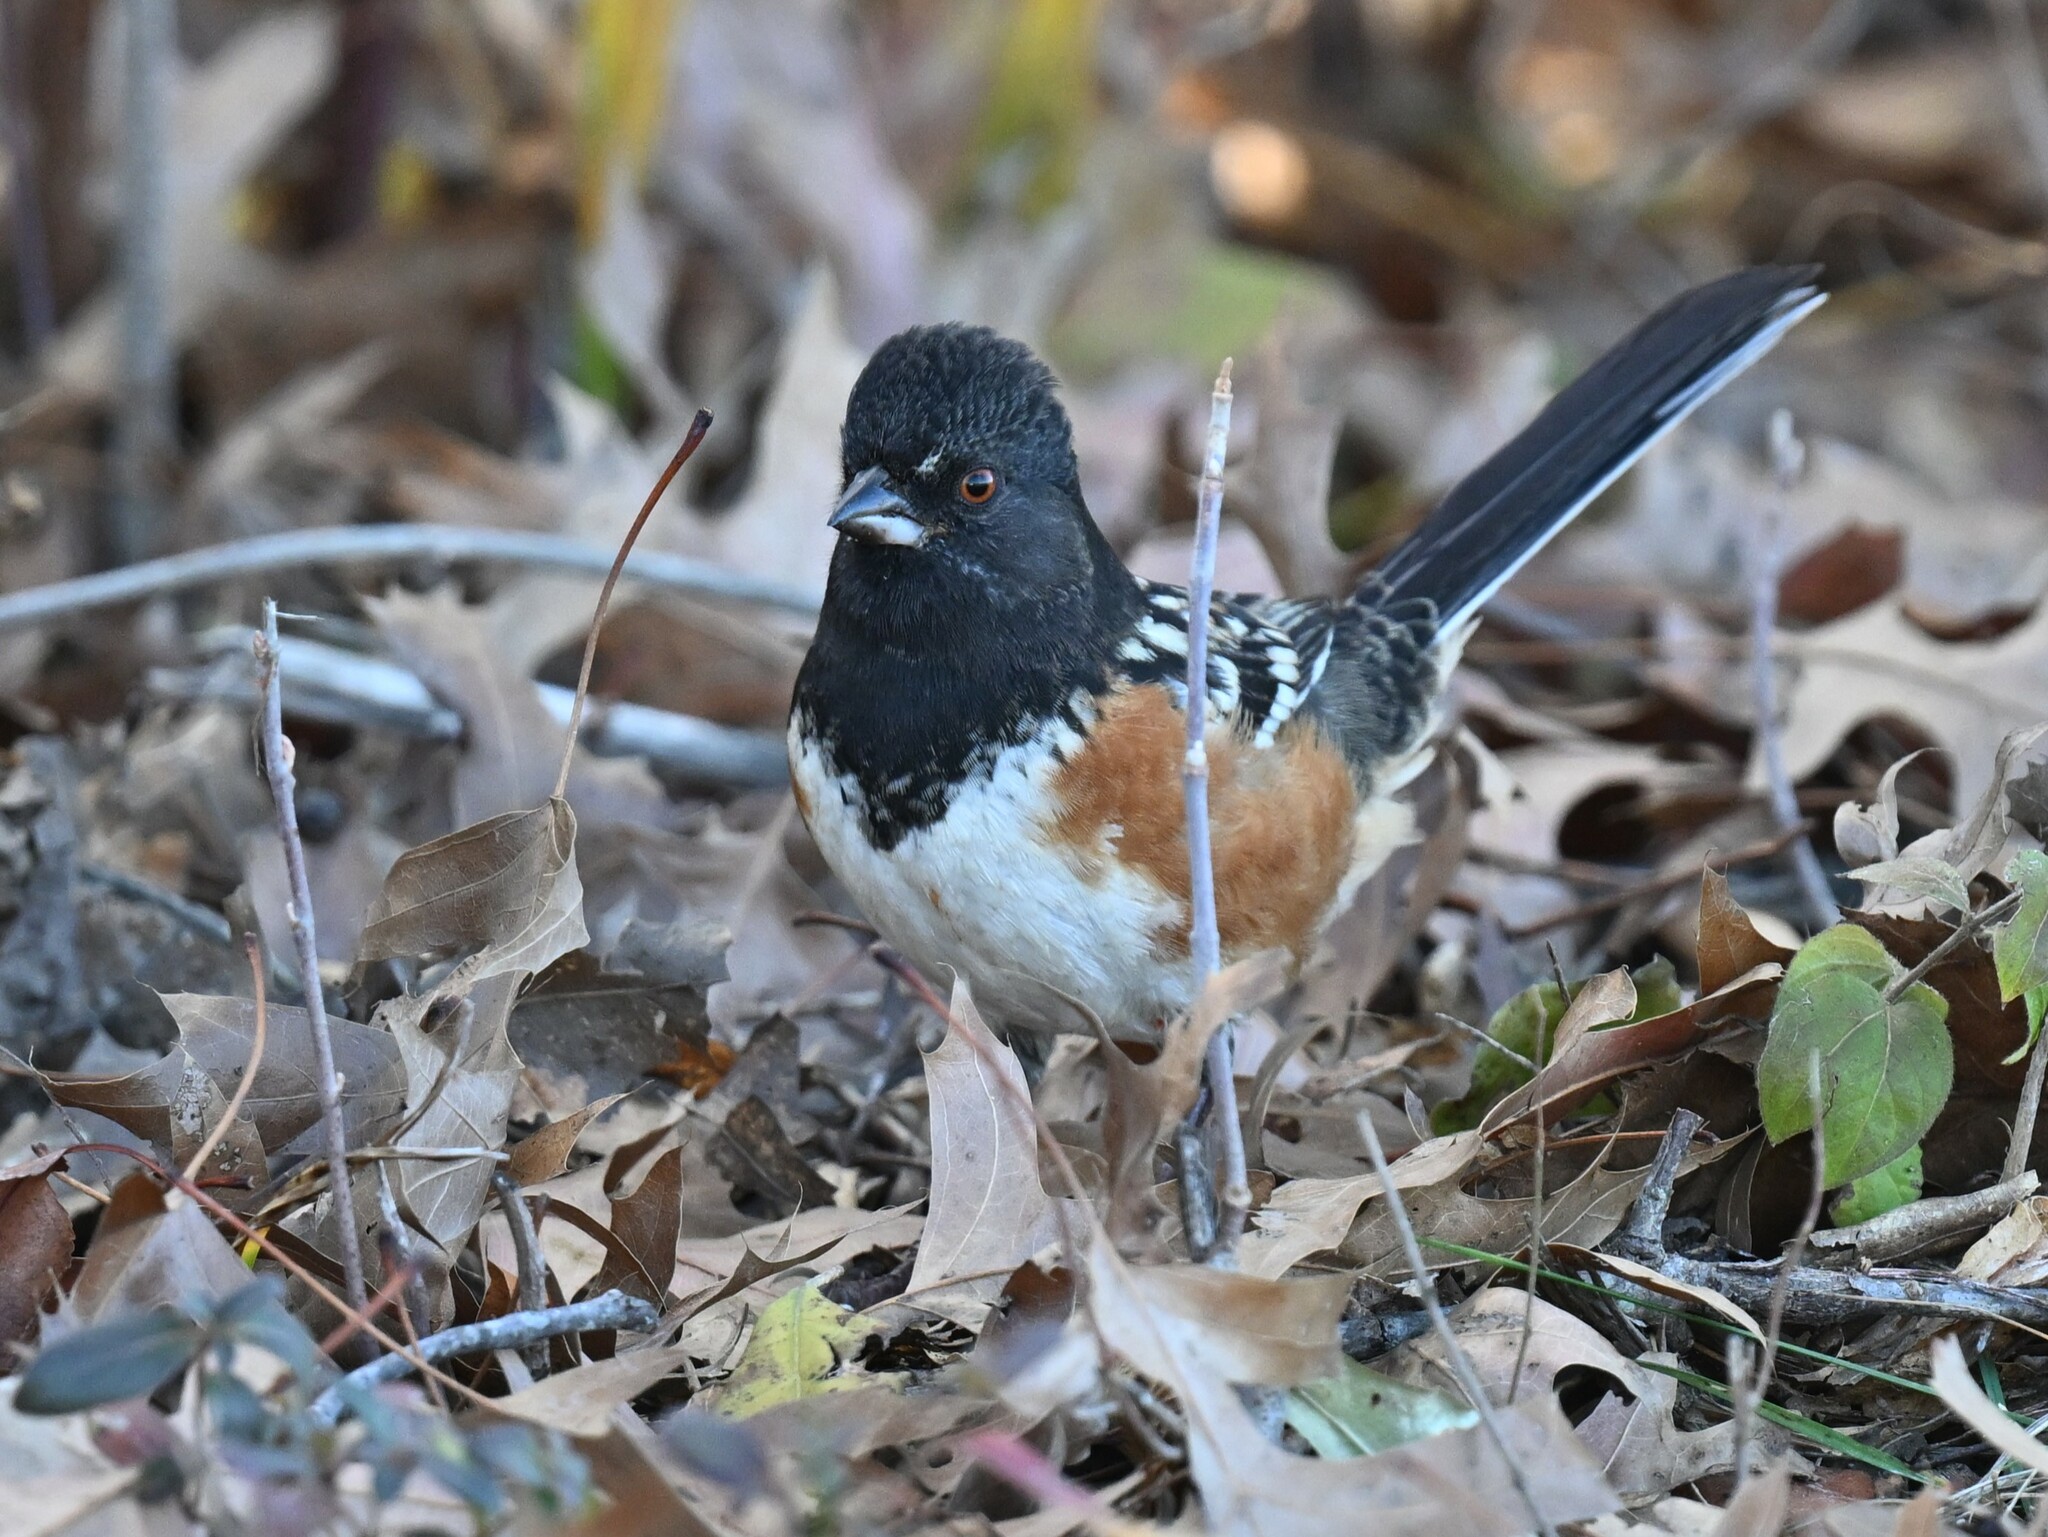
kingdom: Animalia
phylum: Chordata
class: Aves
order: Passeriformes
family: Passerellidae
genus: Pipilo
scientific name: Pipilo maculatus
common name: Spotted towhee
